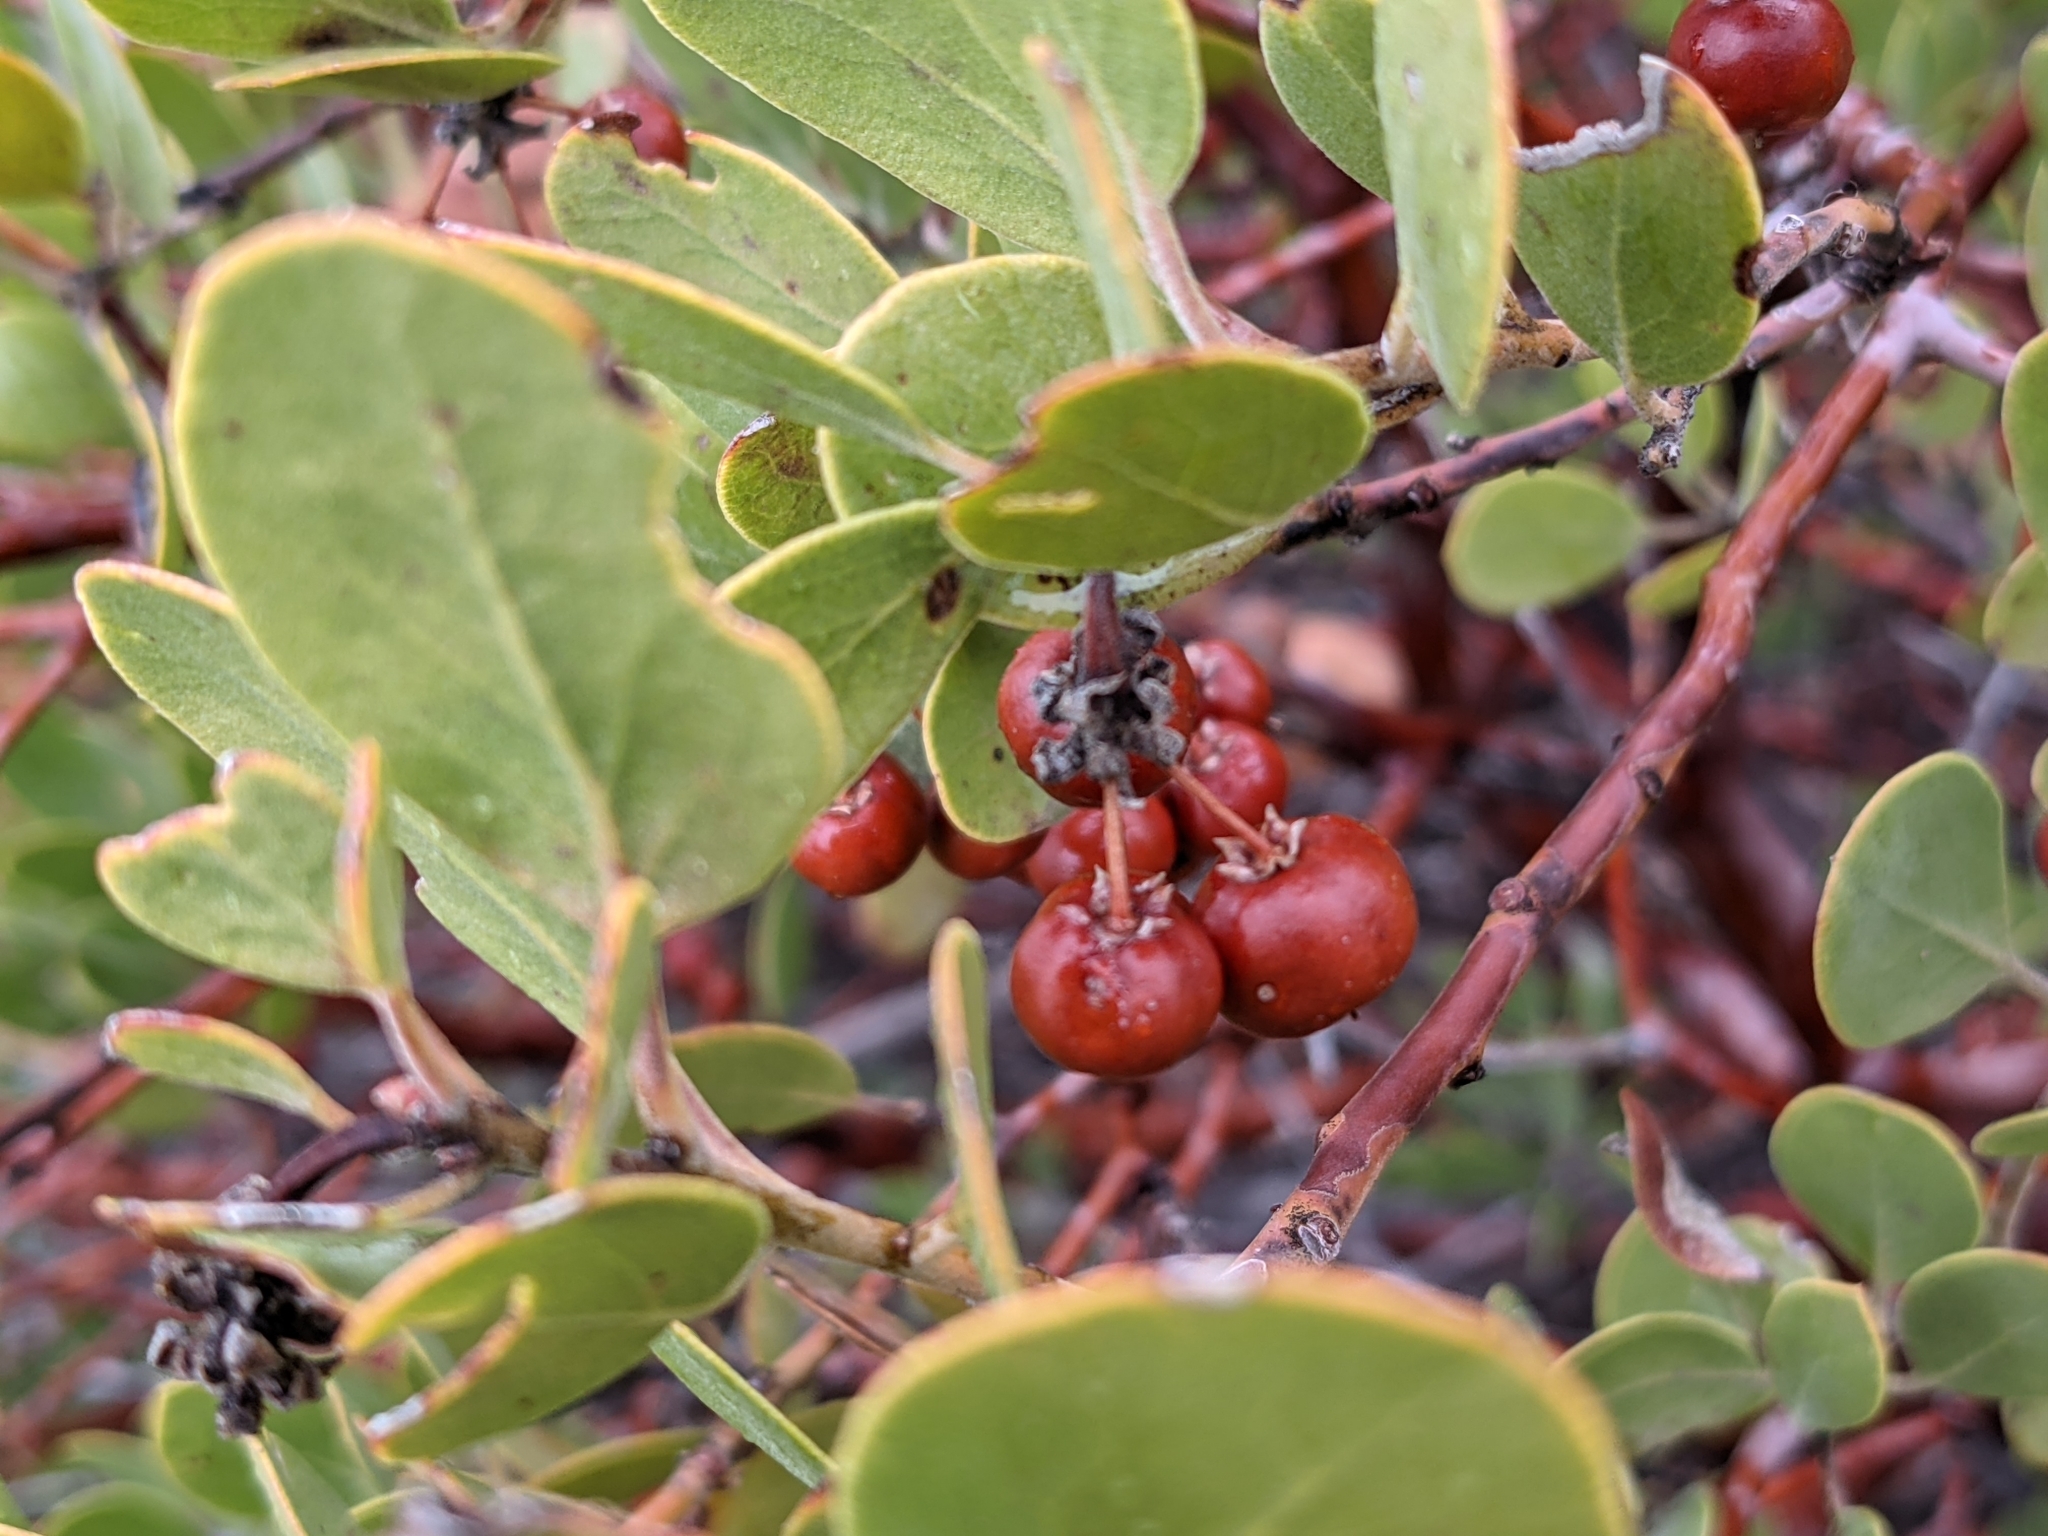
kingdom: Plantae
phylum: Tracheophyta
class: Magnoliopsida
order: Ericales
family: Ericaceae
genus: Arctostaphylos
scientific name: Arctostaphylos pungens
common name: Mexican manzanita
